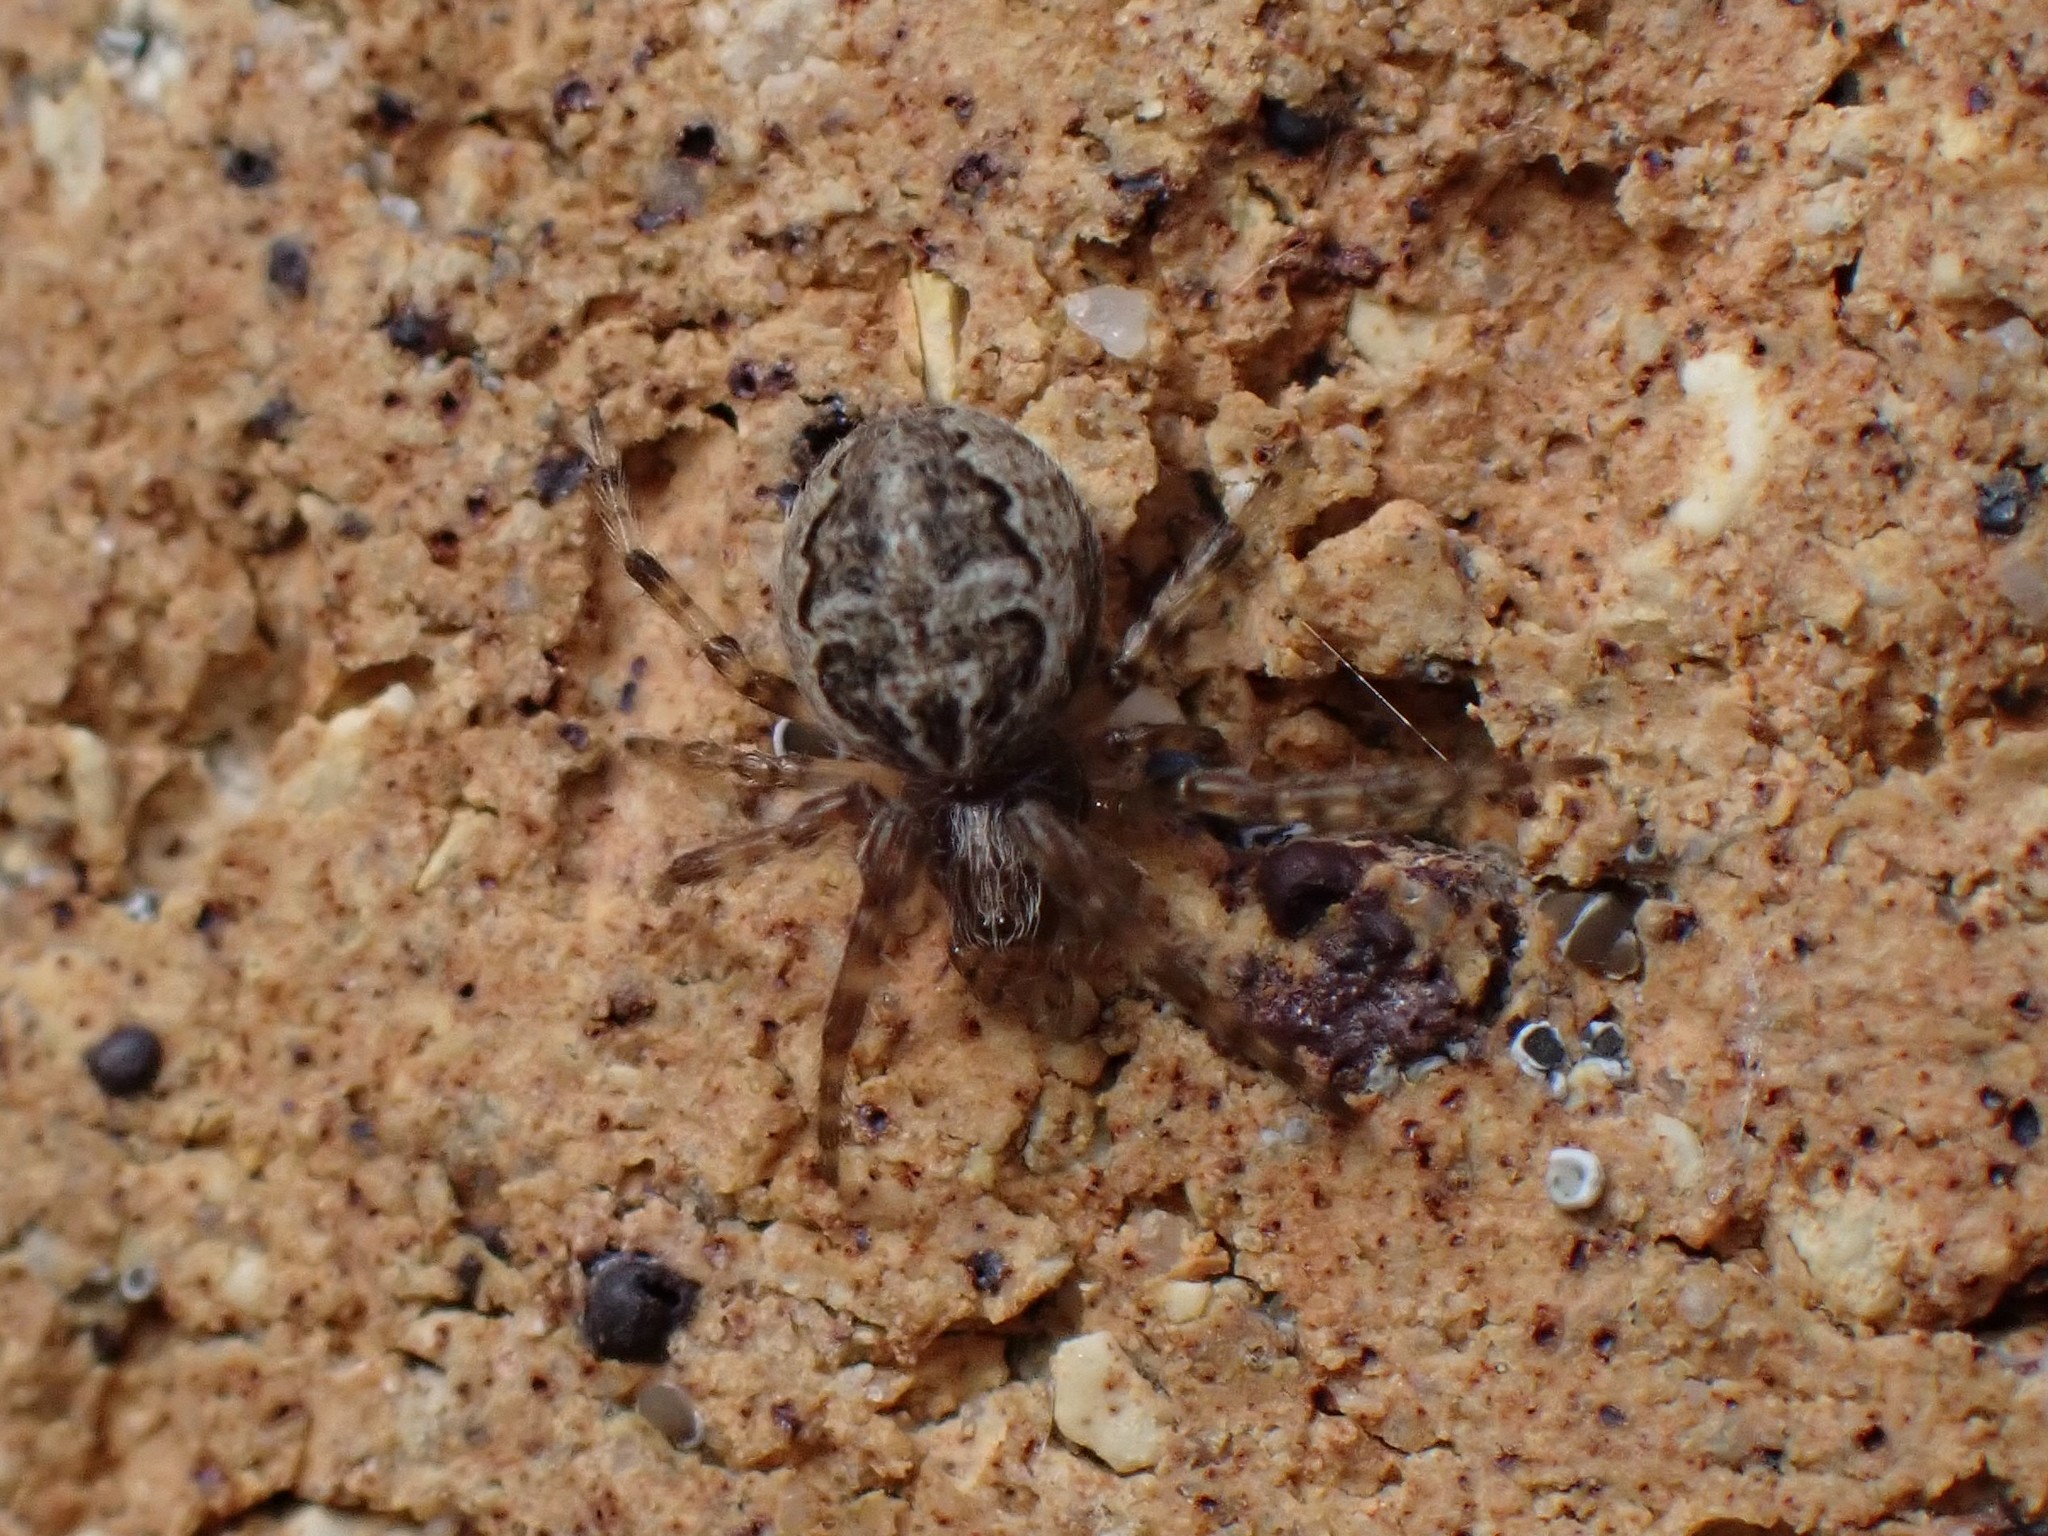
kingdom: Animalia
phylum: Arthropoda
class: Arachnida
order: Araneae
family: Araneidae
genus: Larinioides
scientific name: Larinioides sclopetarius
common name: Bridge orbweaver
